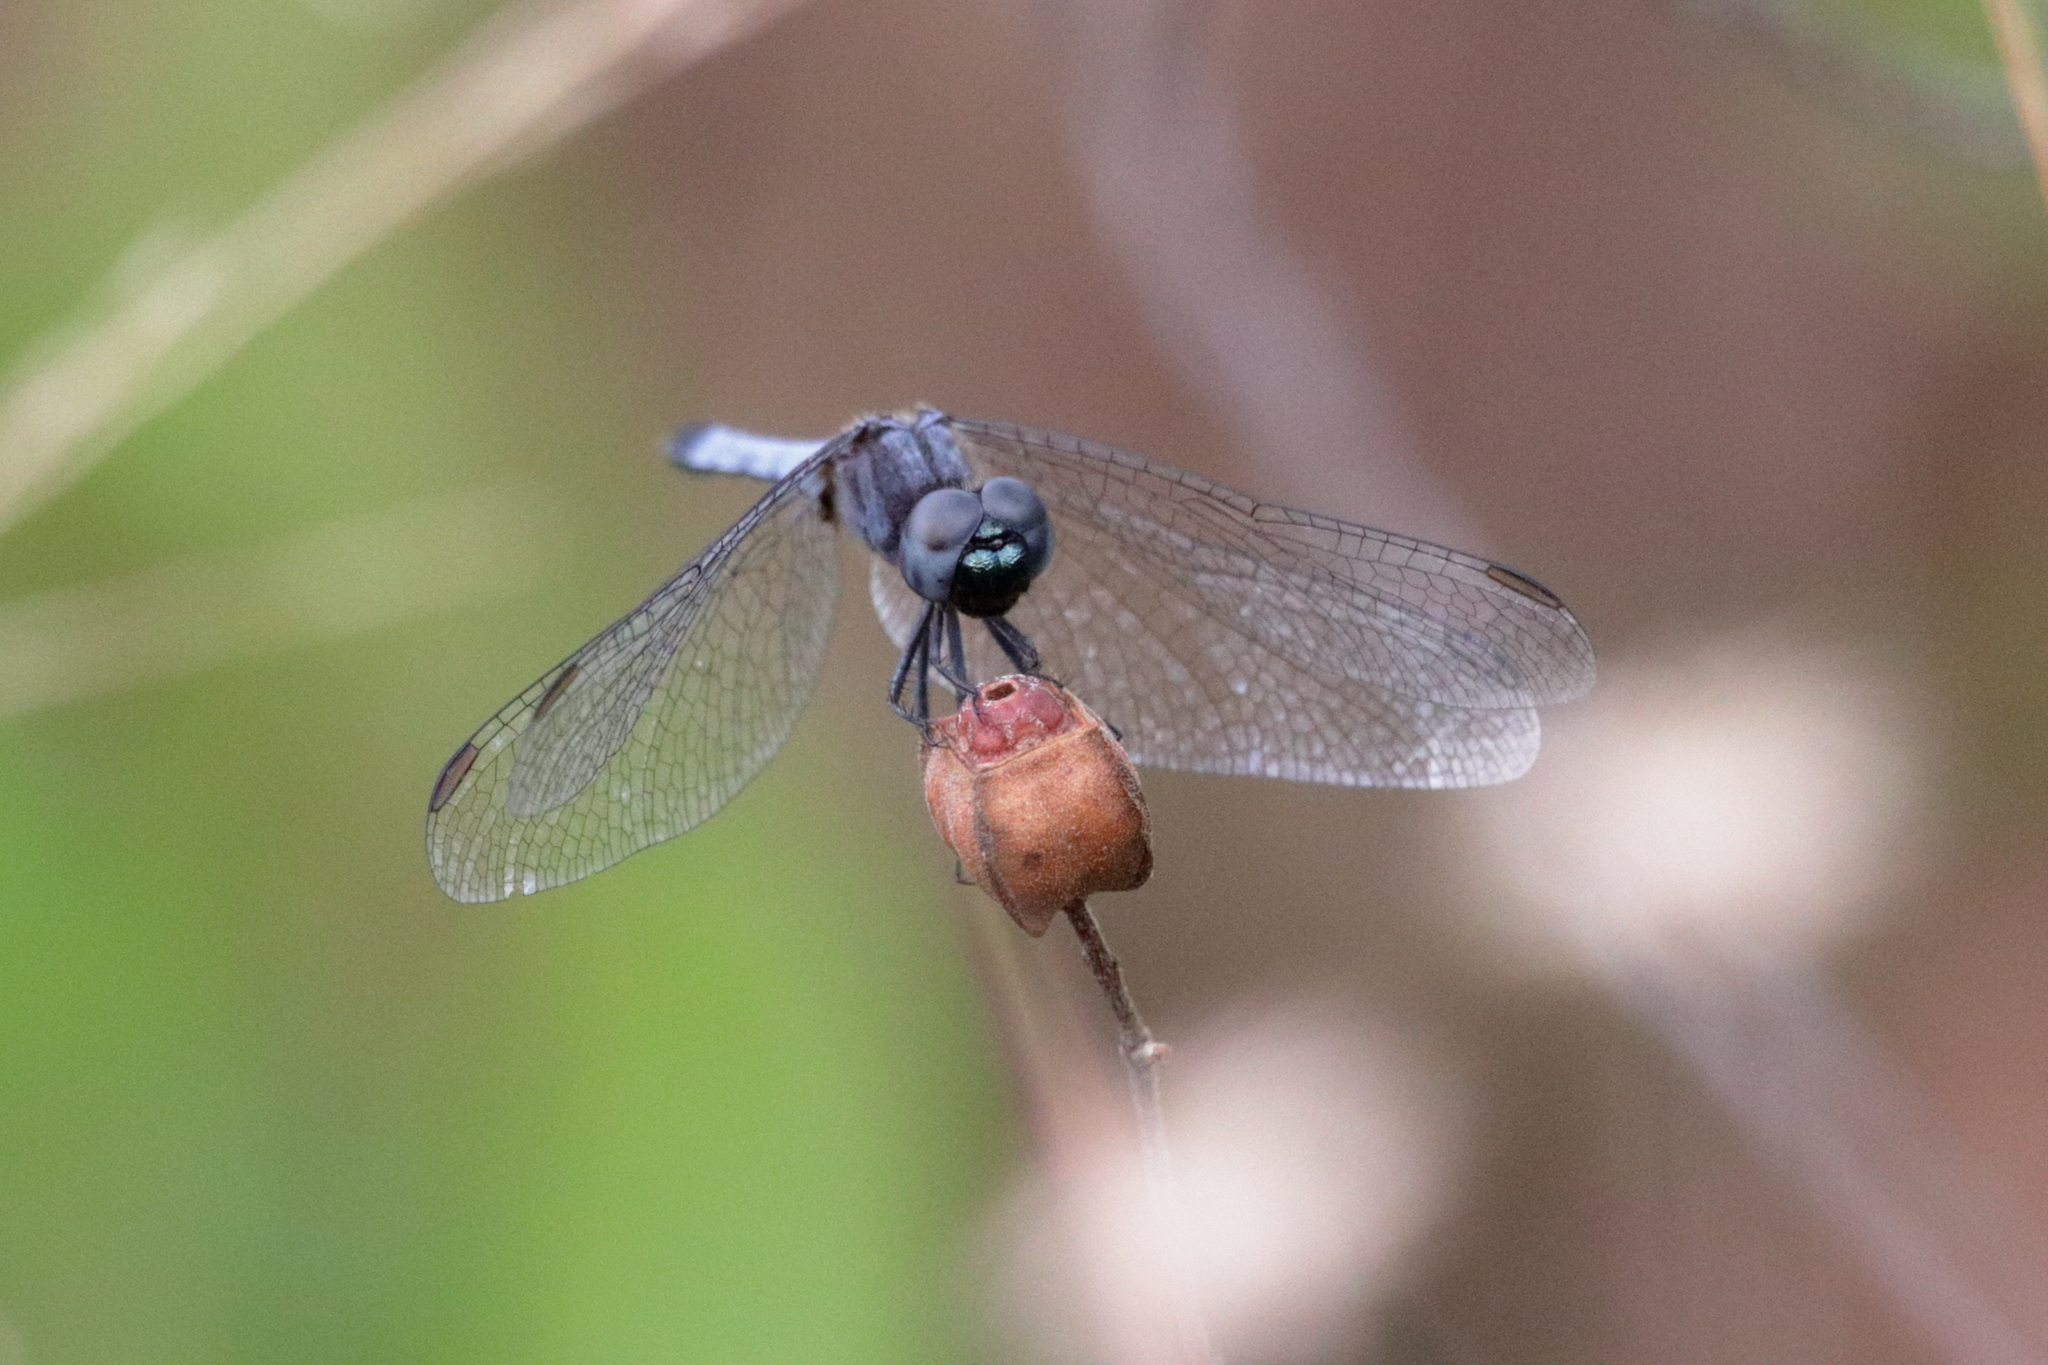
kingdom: Animalia
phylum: Arthropoda
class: Insecta
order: Odonata
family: Libellulidae
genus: Erythrodiplax
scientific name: Erythrodiplax minuscula
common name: Little blue dragonlet
